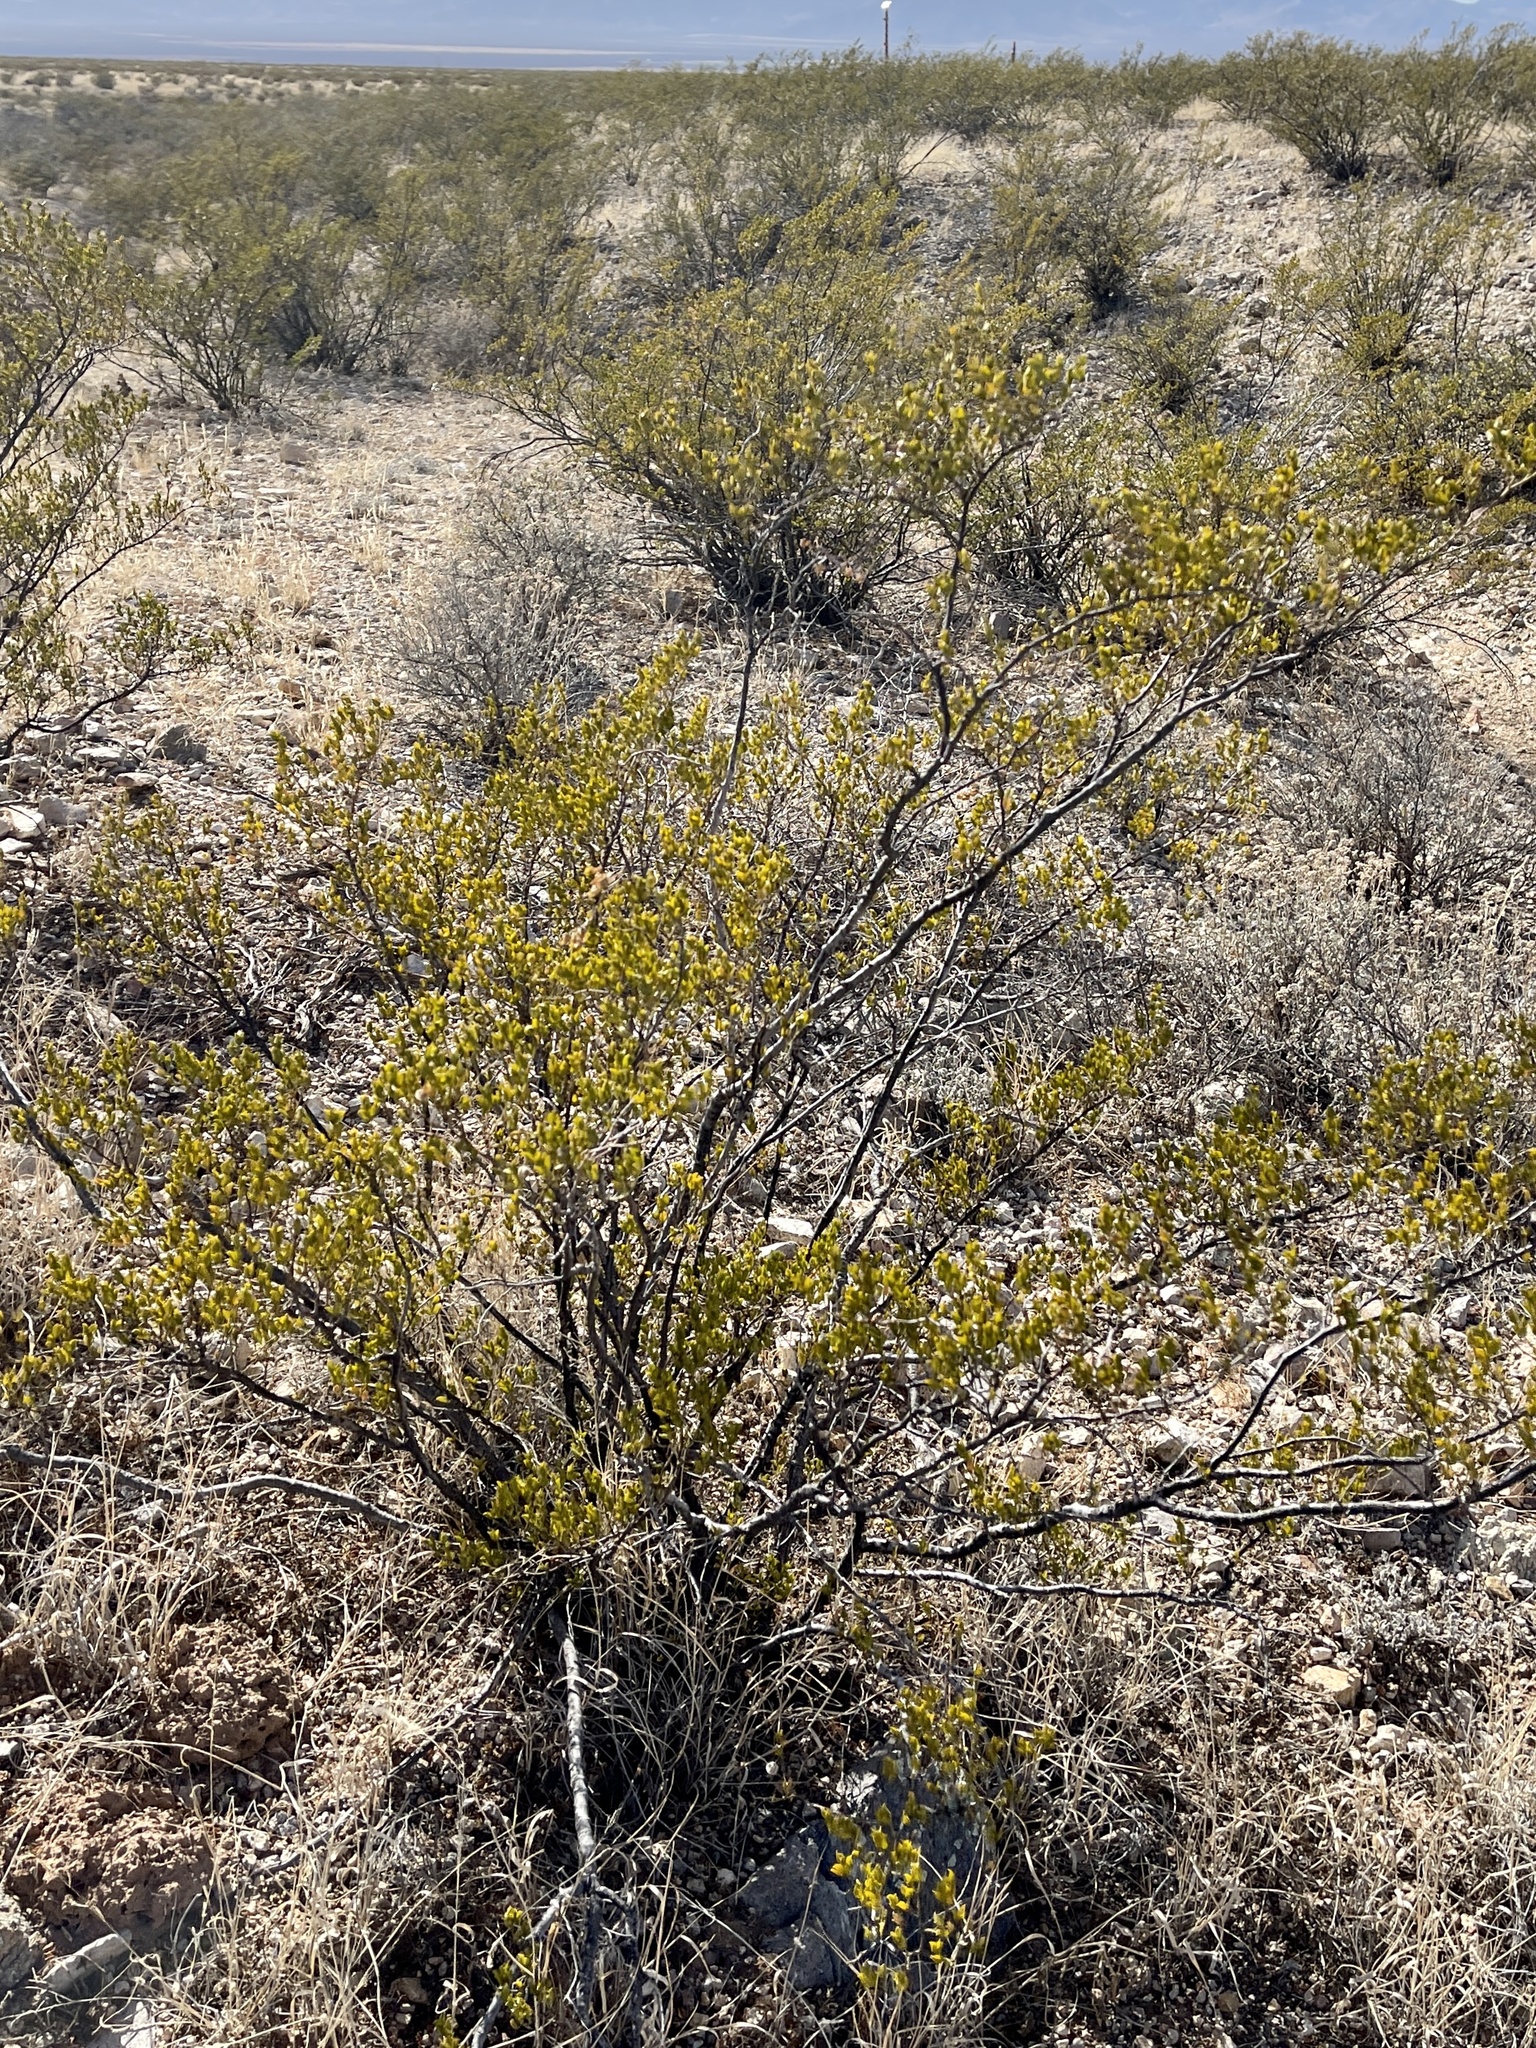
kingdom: Plantae
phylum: Tracheophyta
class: Magnoliopsida
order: Zygophyllales
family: Zygophyllaceae
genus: Larrea
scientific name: Larrea tridentata
